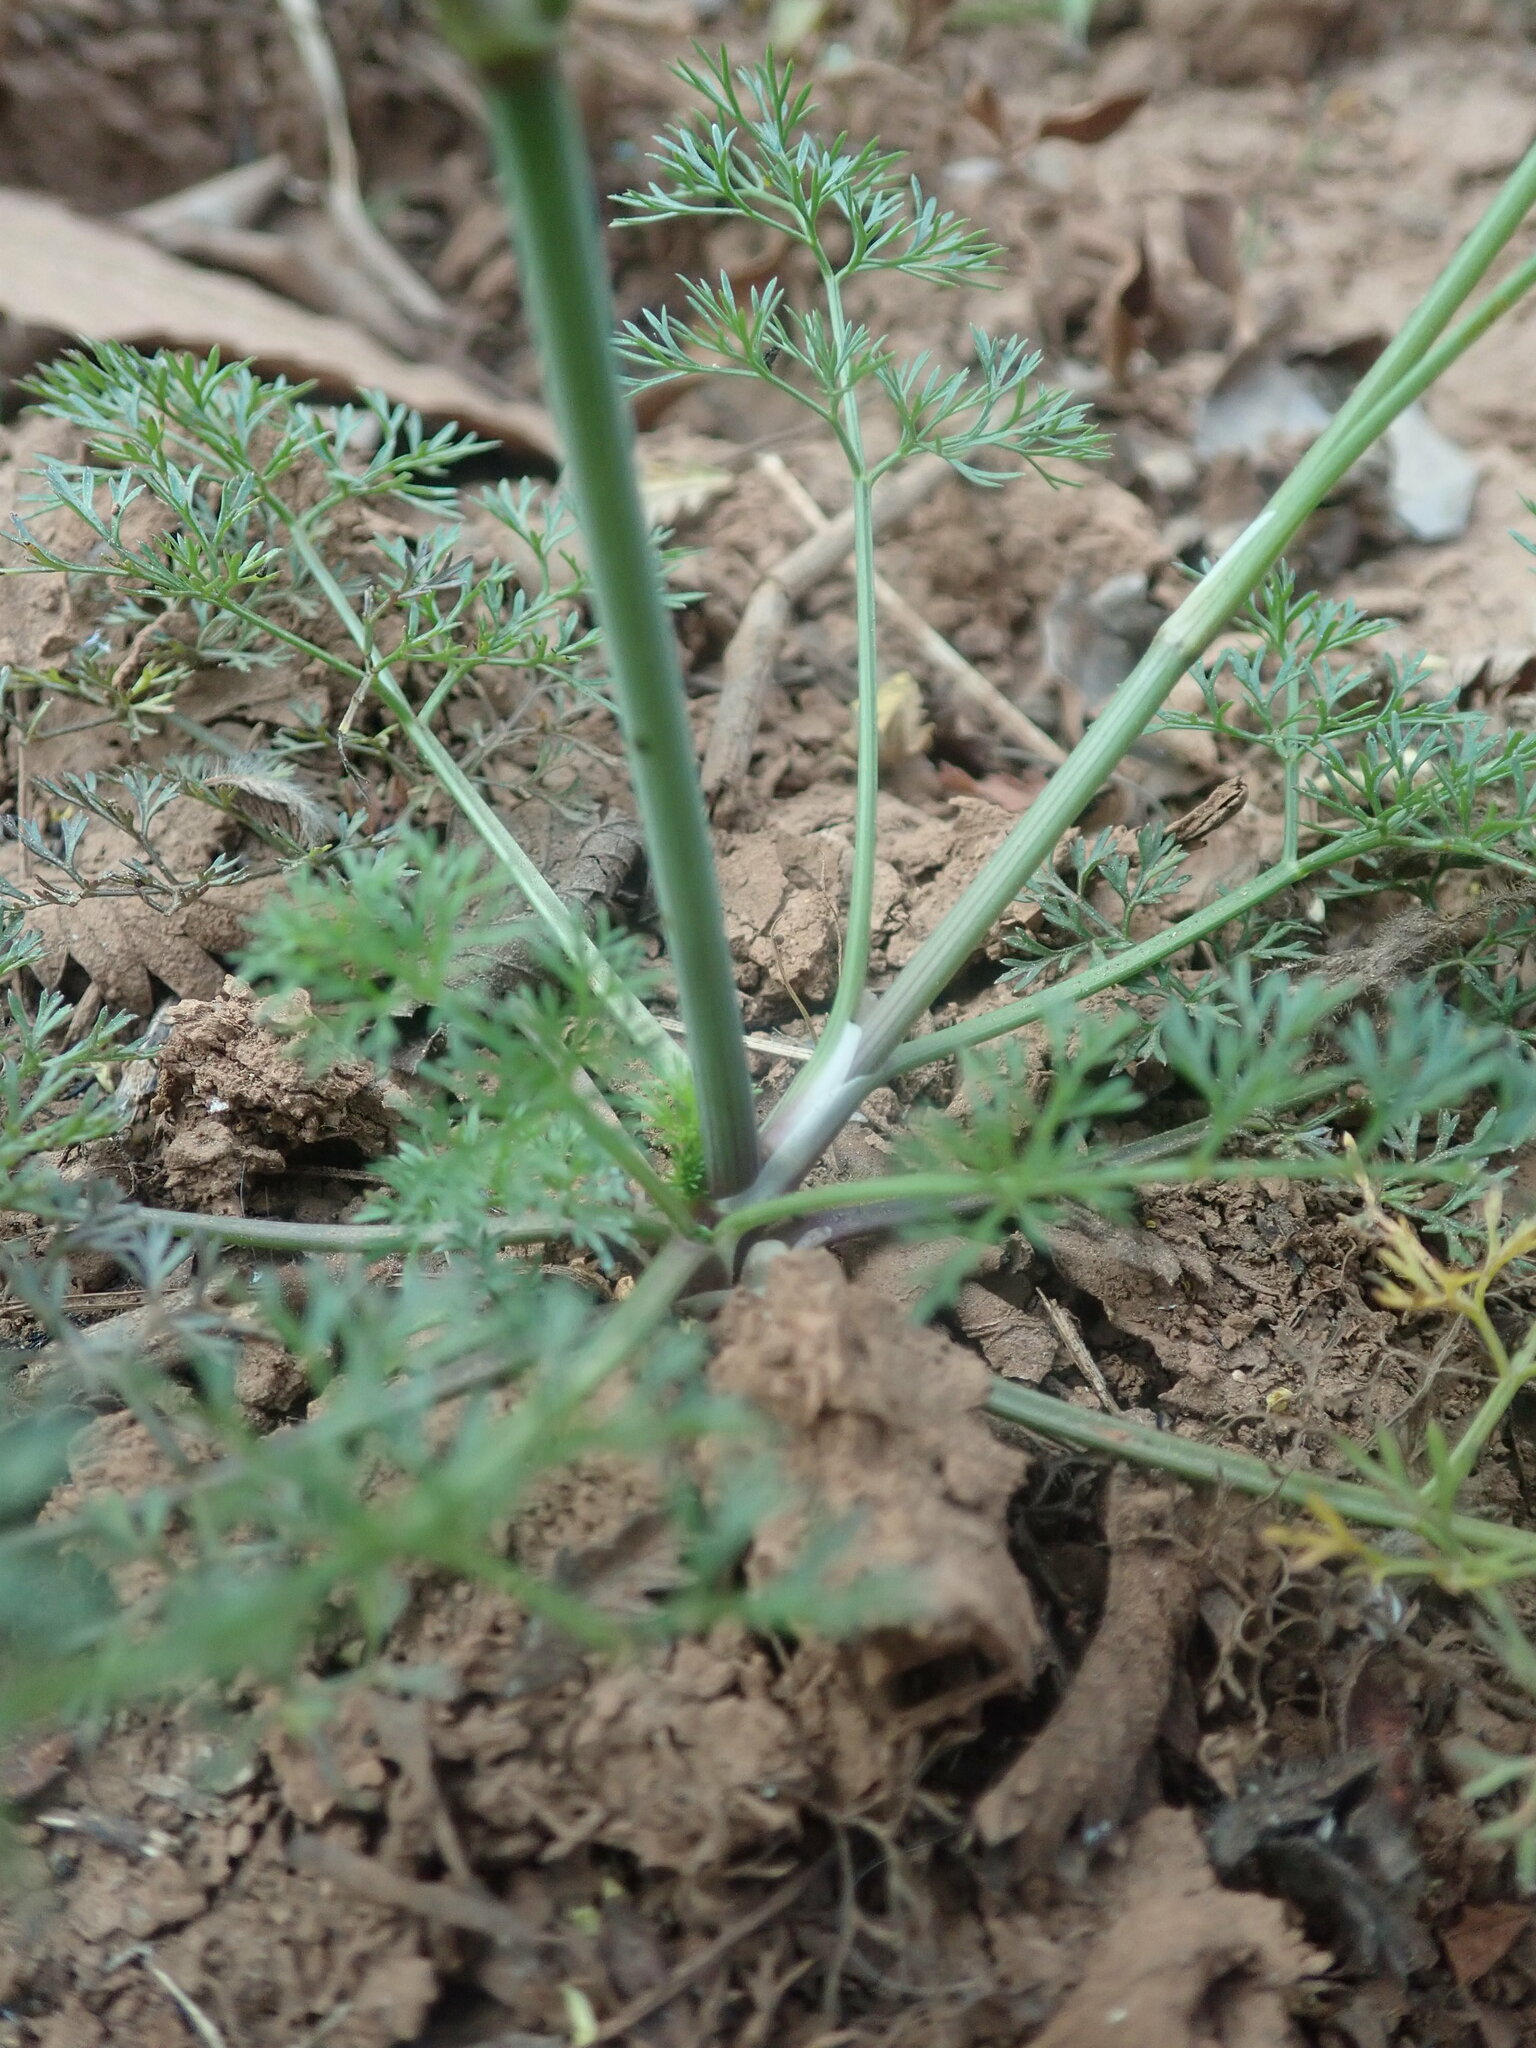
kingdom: Plantae
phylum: Tracheophyta
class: Magnoliopsida
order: Apiales
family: Apiaceae
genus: Cyclospermum
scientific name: Cyclospermum leptophyllum
